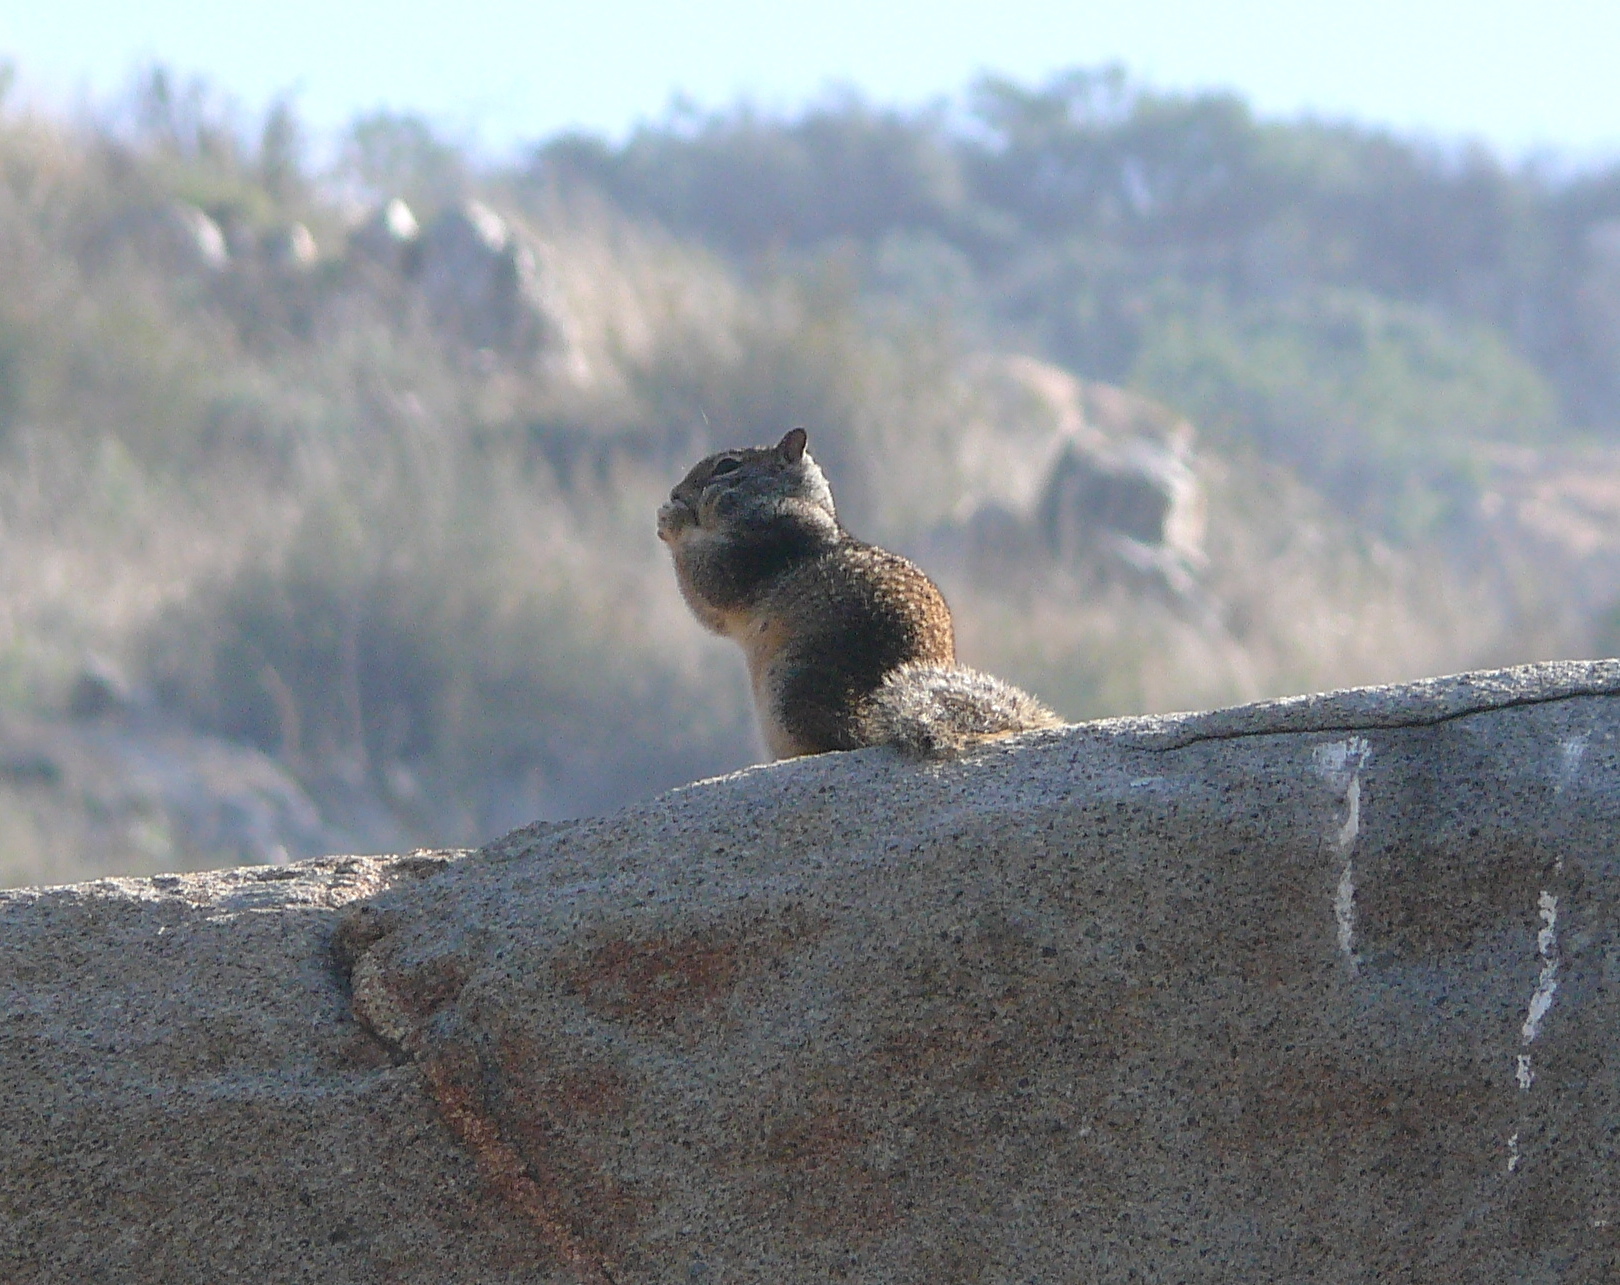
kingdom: Animalia
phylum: Chordata
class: Mammalia
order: Rodentia
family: Sciuridae
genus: Otospermophilus
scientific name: Otospermophilus beecheyi
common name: California ground squirrel
